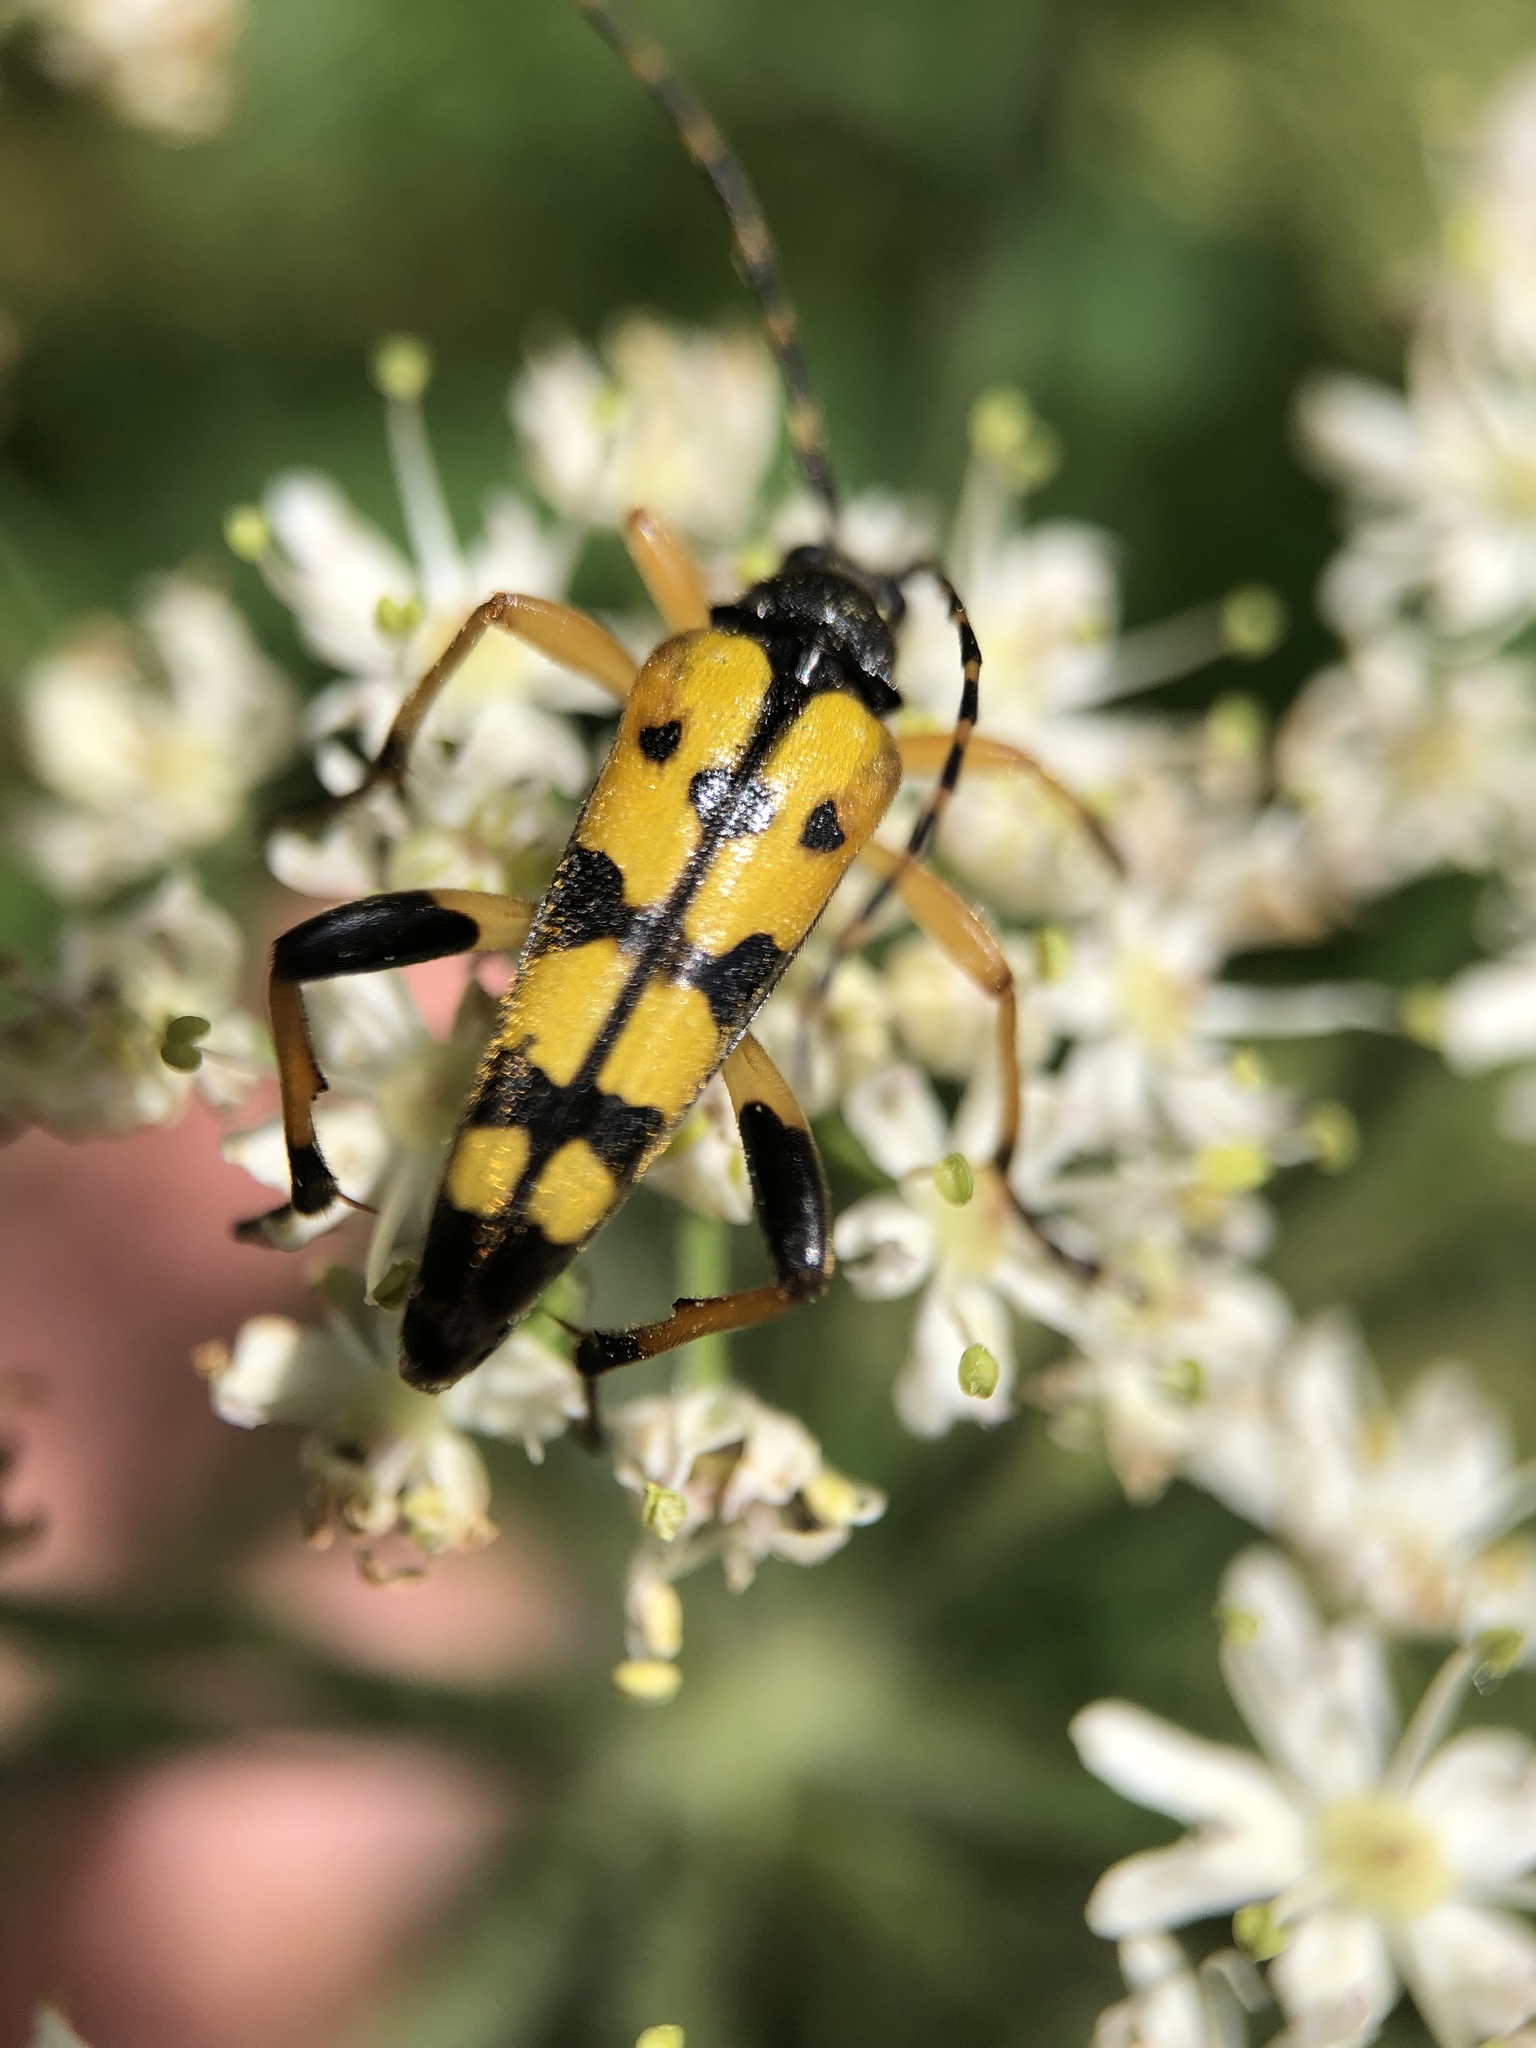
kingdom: Animalia
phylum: Arthropoda
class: Insecta
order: Coleoptera
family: Cerambycidae
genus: Rutpela
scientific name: Rutpela maculata
